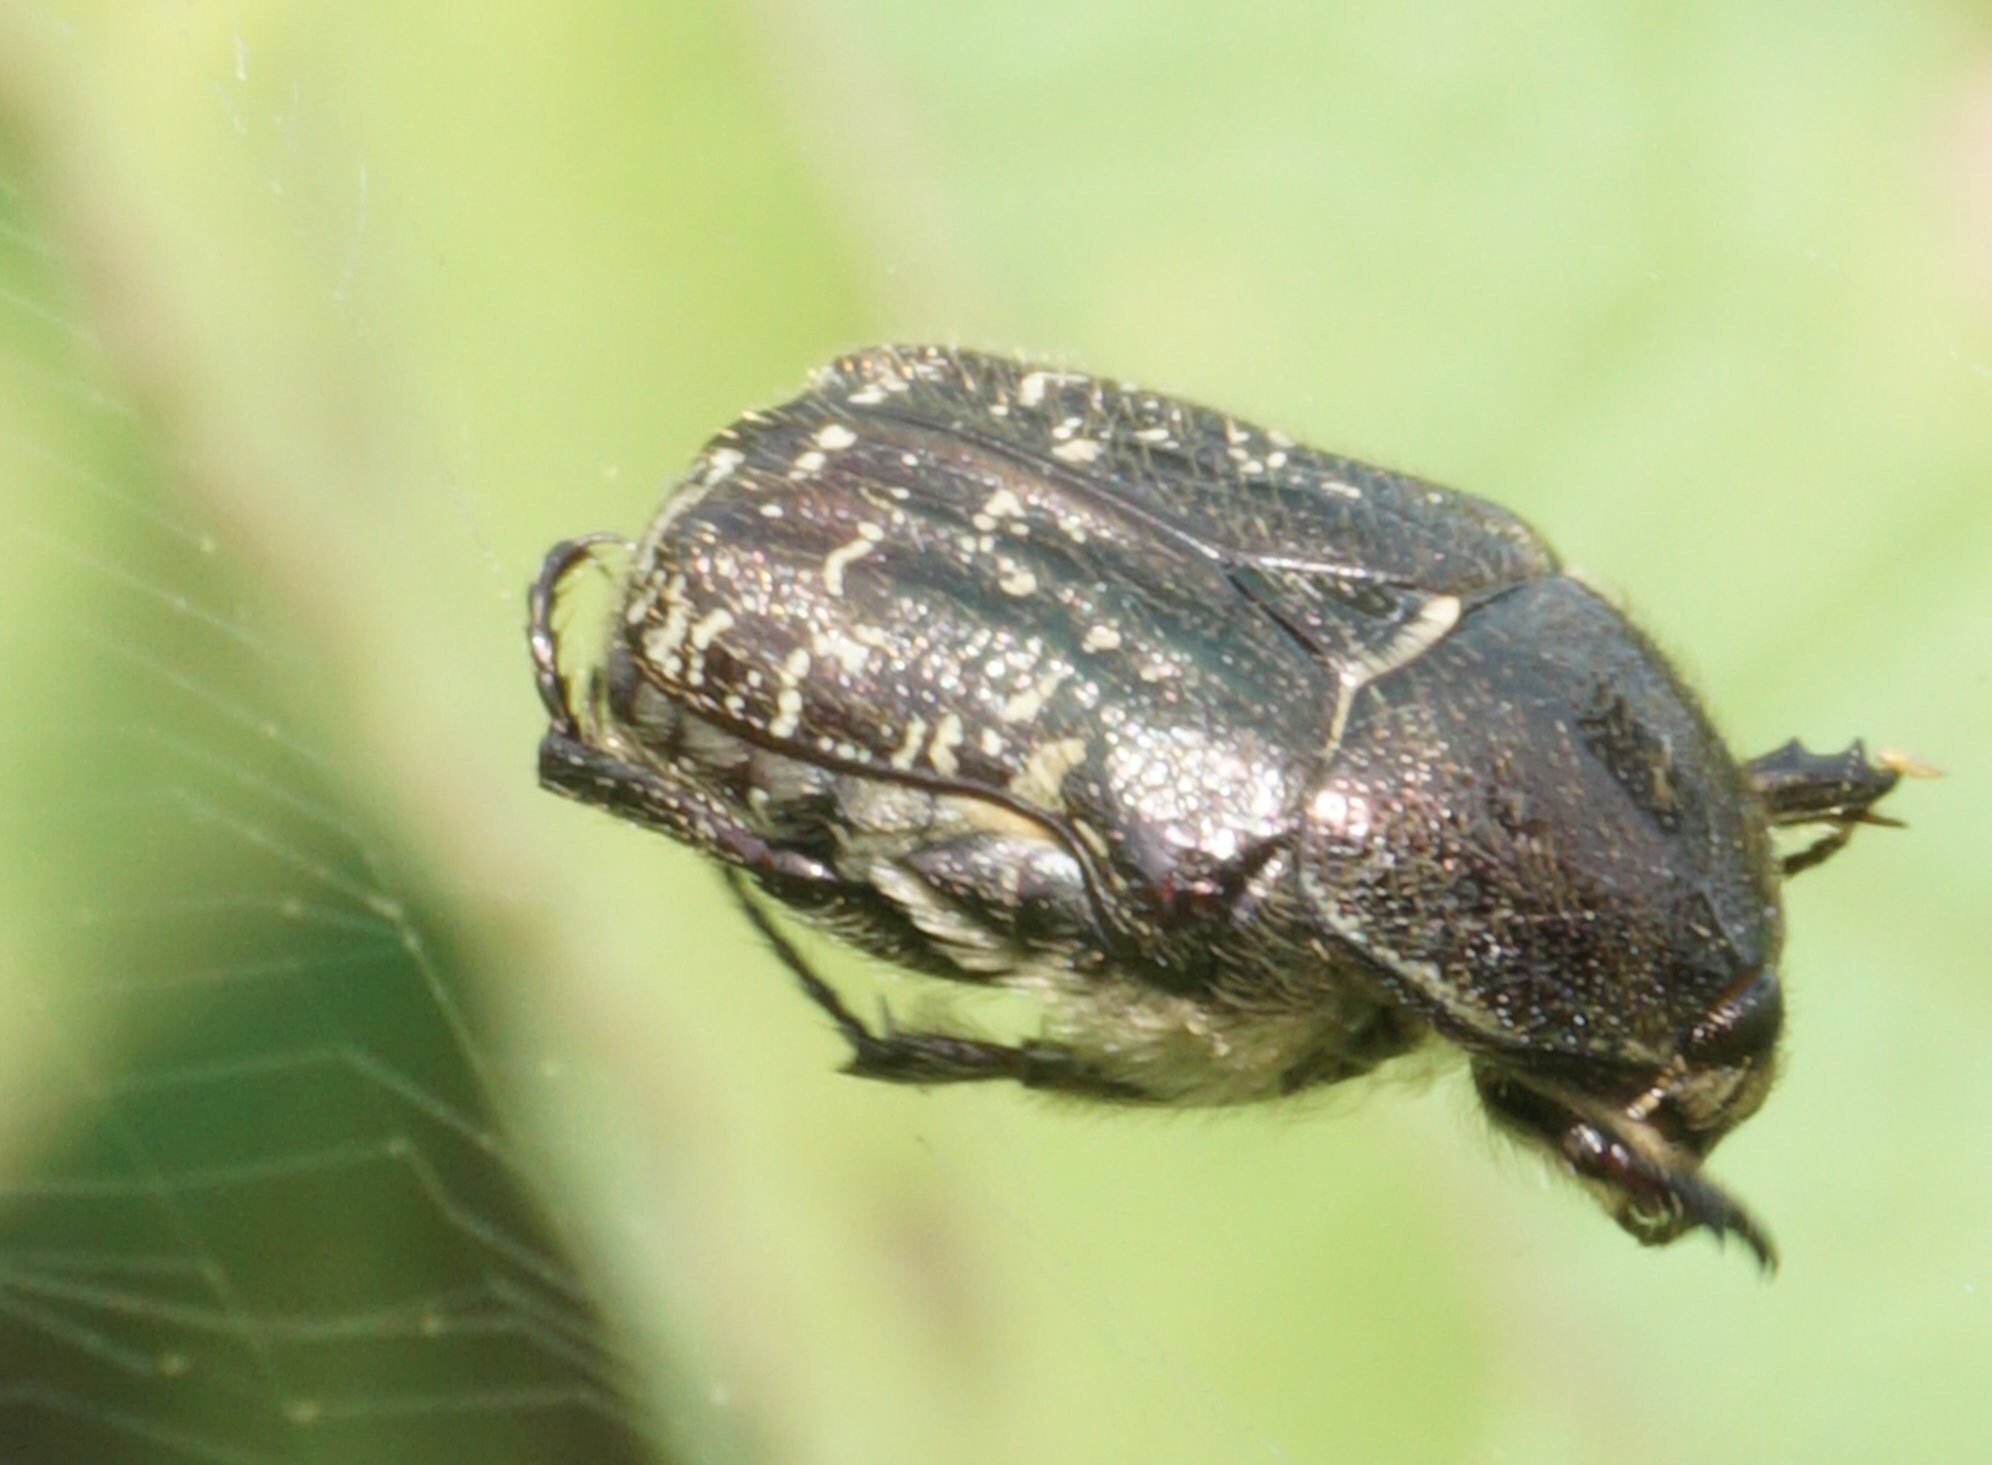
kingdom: Animalia
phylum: Arthropoda
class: Insecta
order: Coleoptera
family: Scarabaeidae
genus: Euphoria
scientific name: Euphoria sepulcralis
